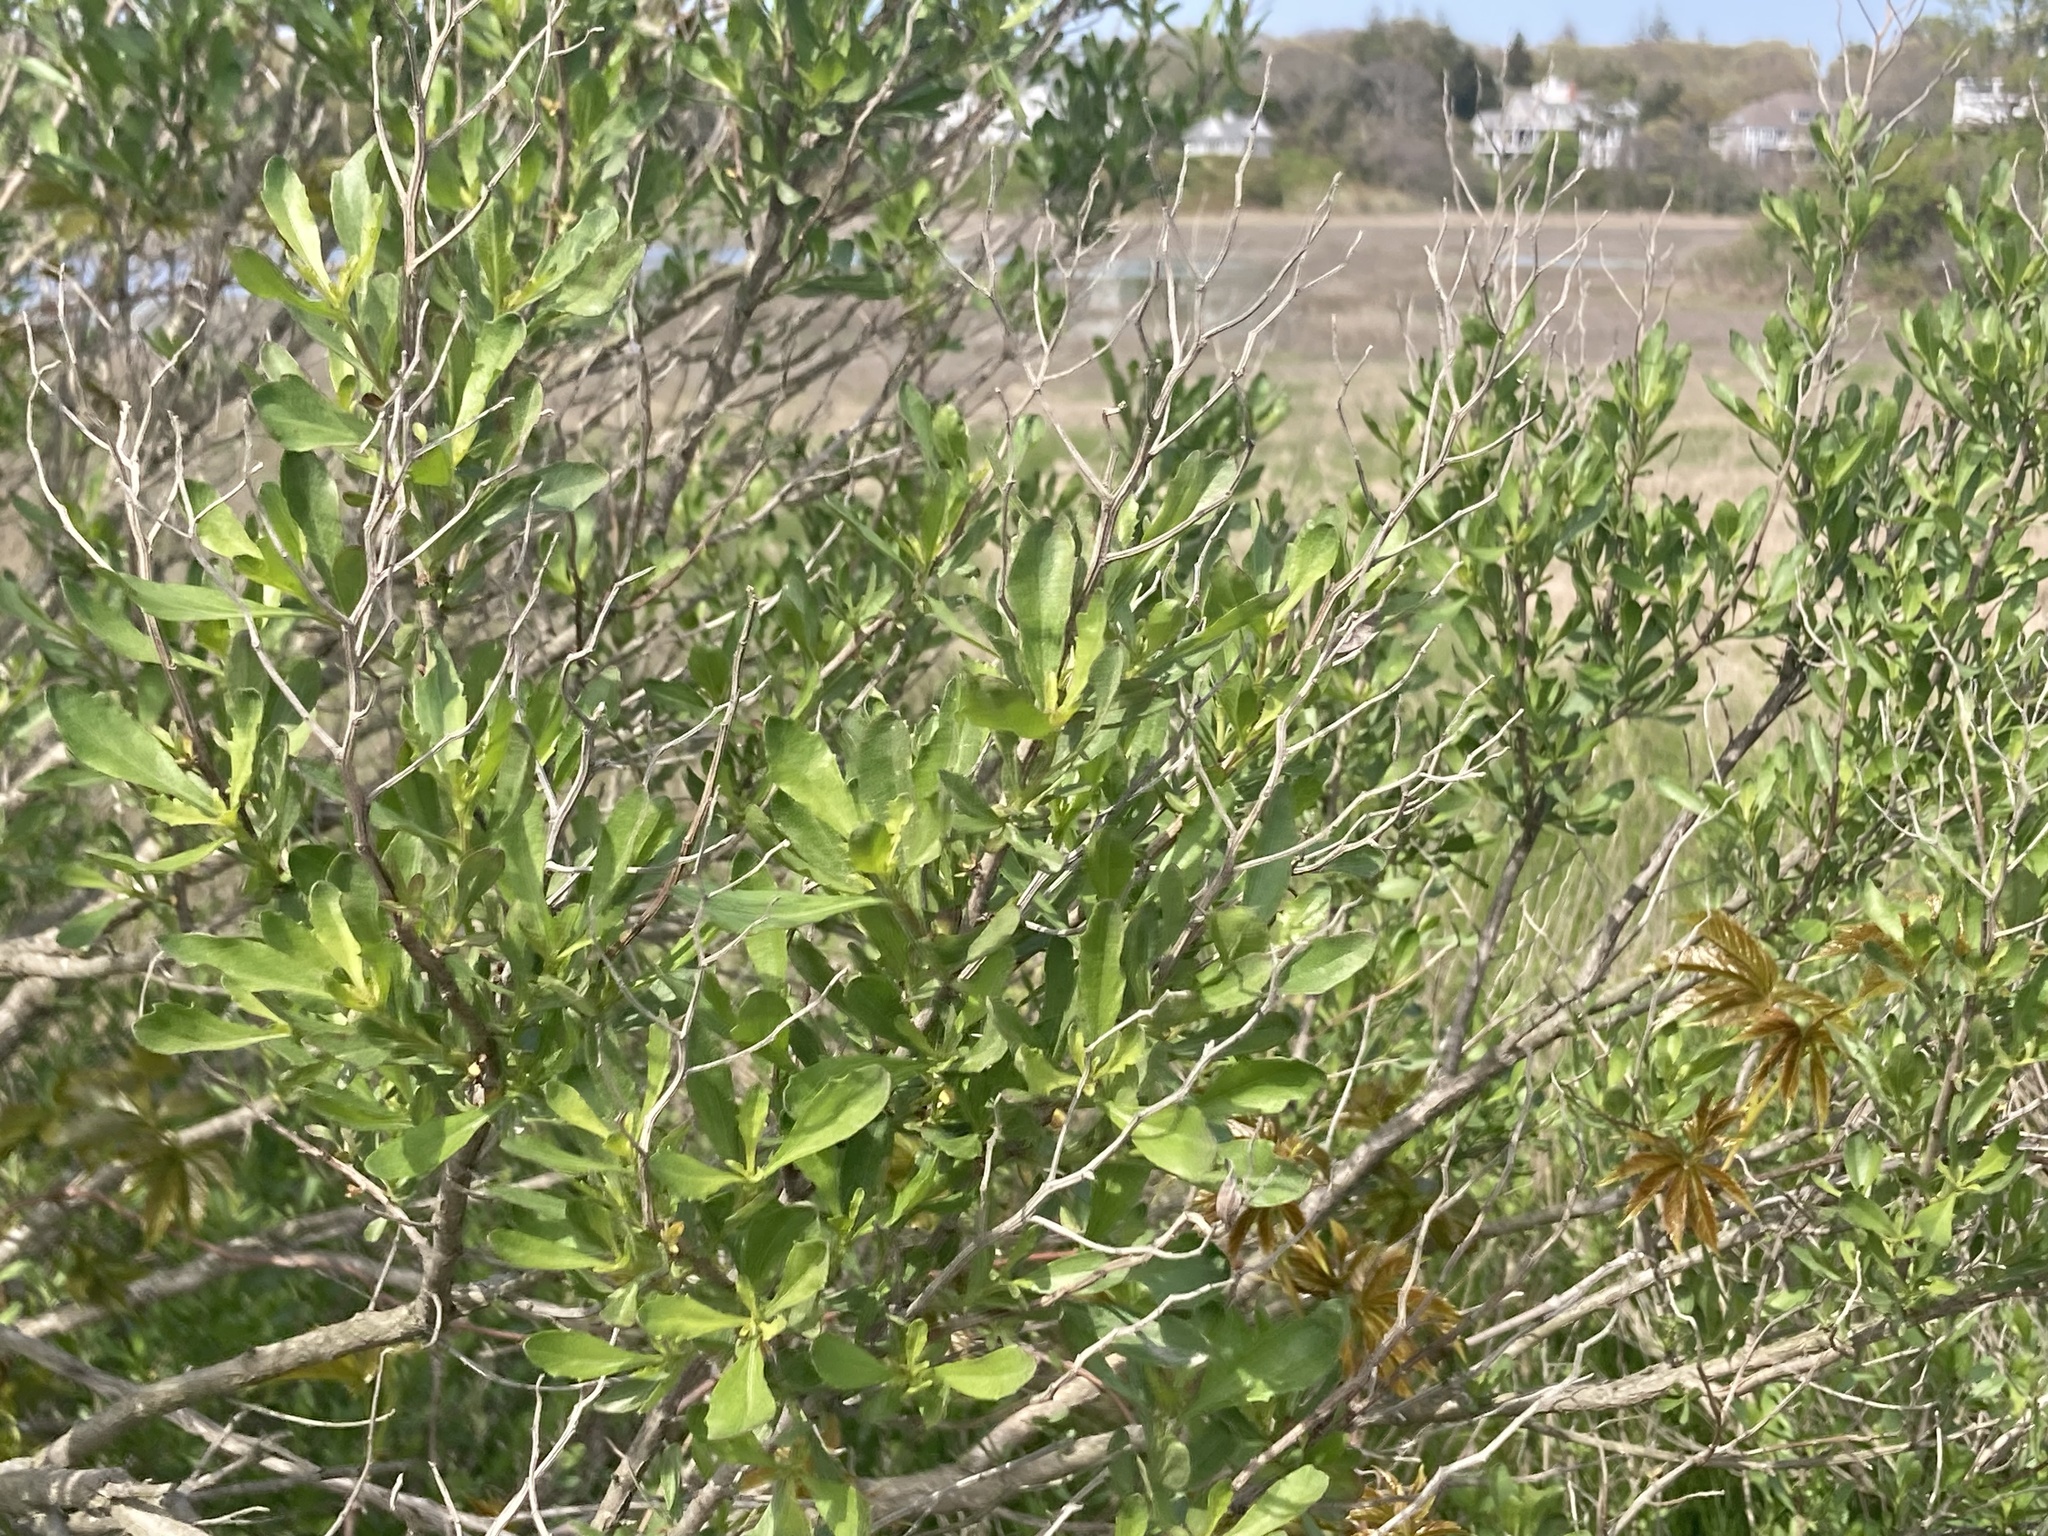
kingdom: Plantae
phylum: Tracheophyta
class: Magnoliopsida
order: Asterales
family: Asteraceae
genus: Baccharis
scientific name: Baccharis halimifolia
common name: Eastern baccharis
